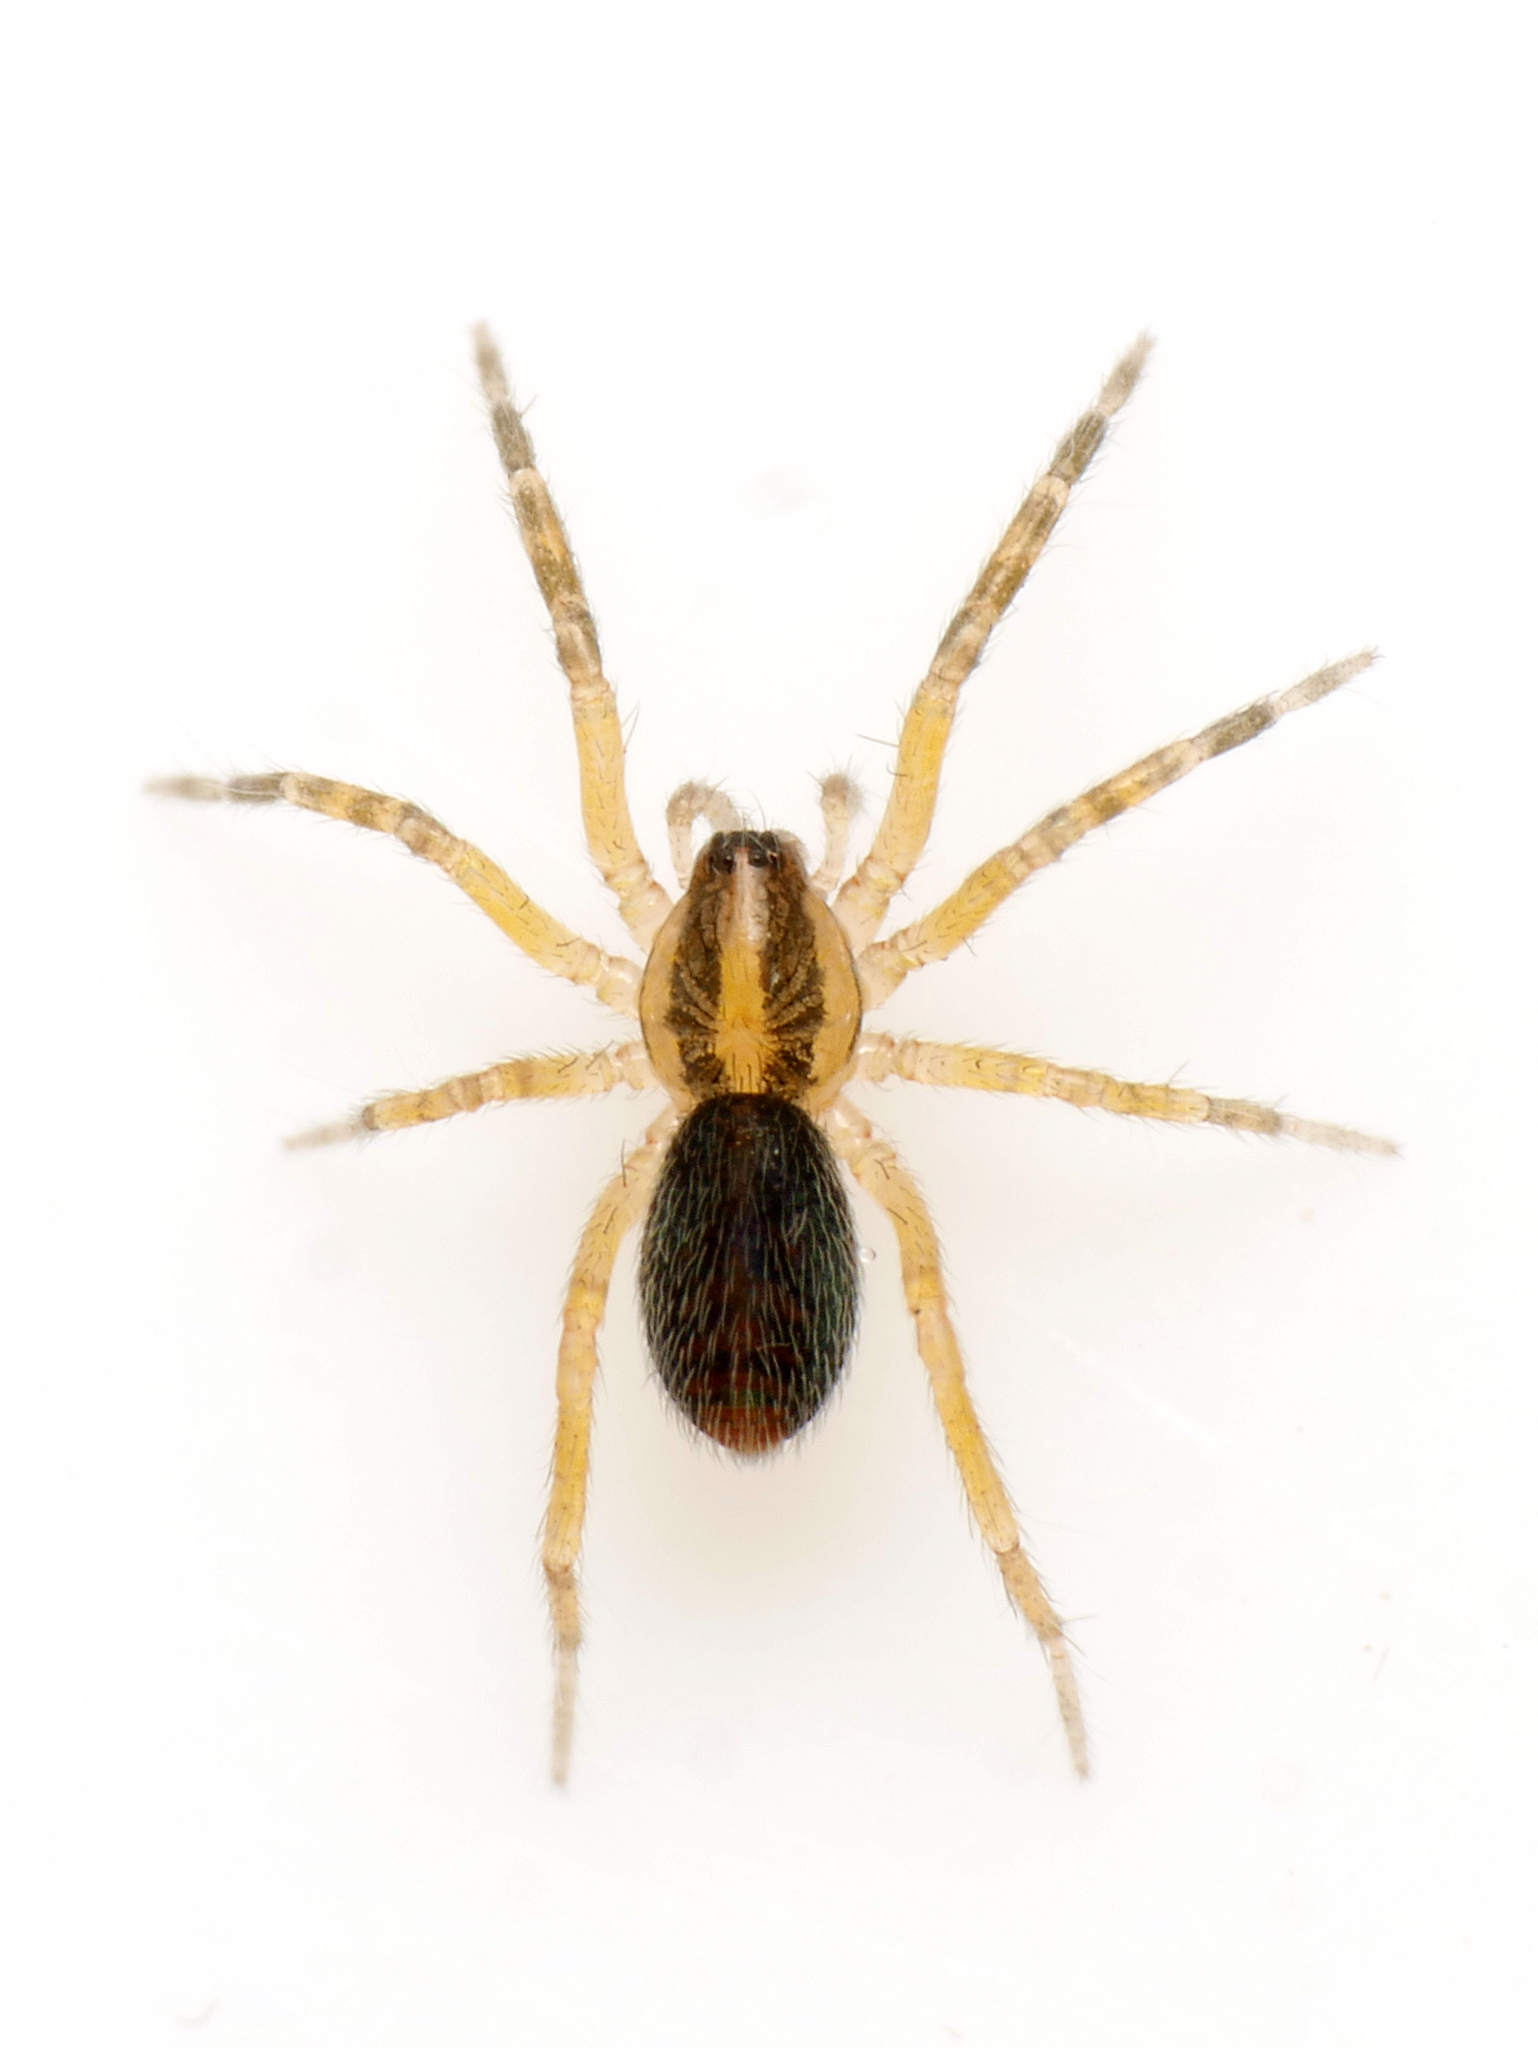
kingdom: Animalia
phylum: Arthropoda
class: Arachnida
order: Araneae
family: Liocranidae
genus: Scotina
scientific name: Scotina celans
